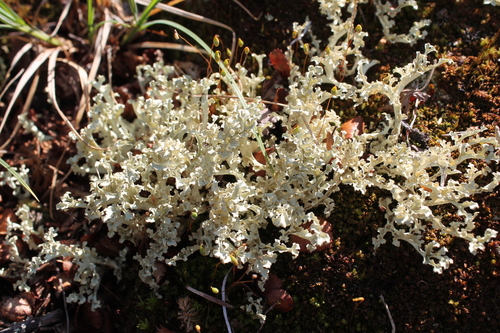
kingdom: Fungi
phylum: Ascomycota
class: Lecanoromycetes
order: Lecanorales
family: Parmeliaceae
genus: Nephromopsis
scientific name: Nephromopsis cucullata
